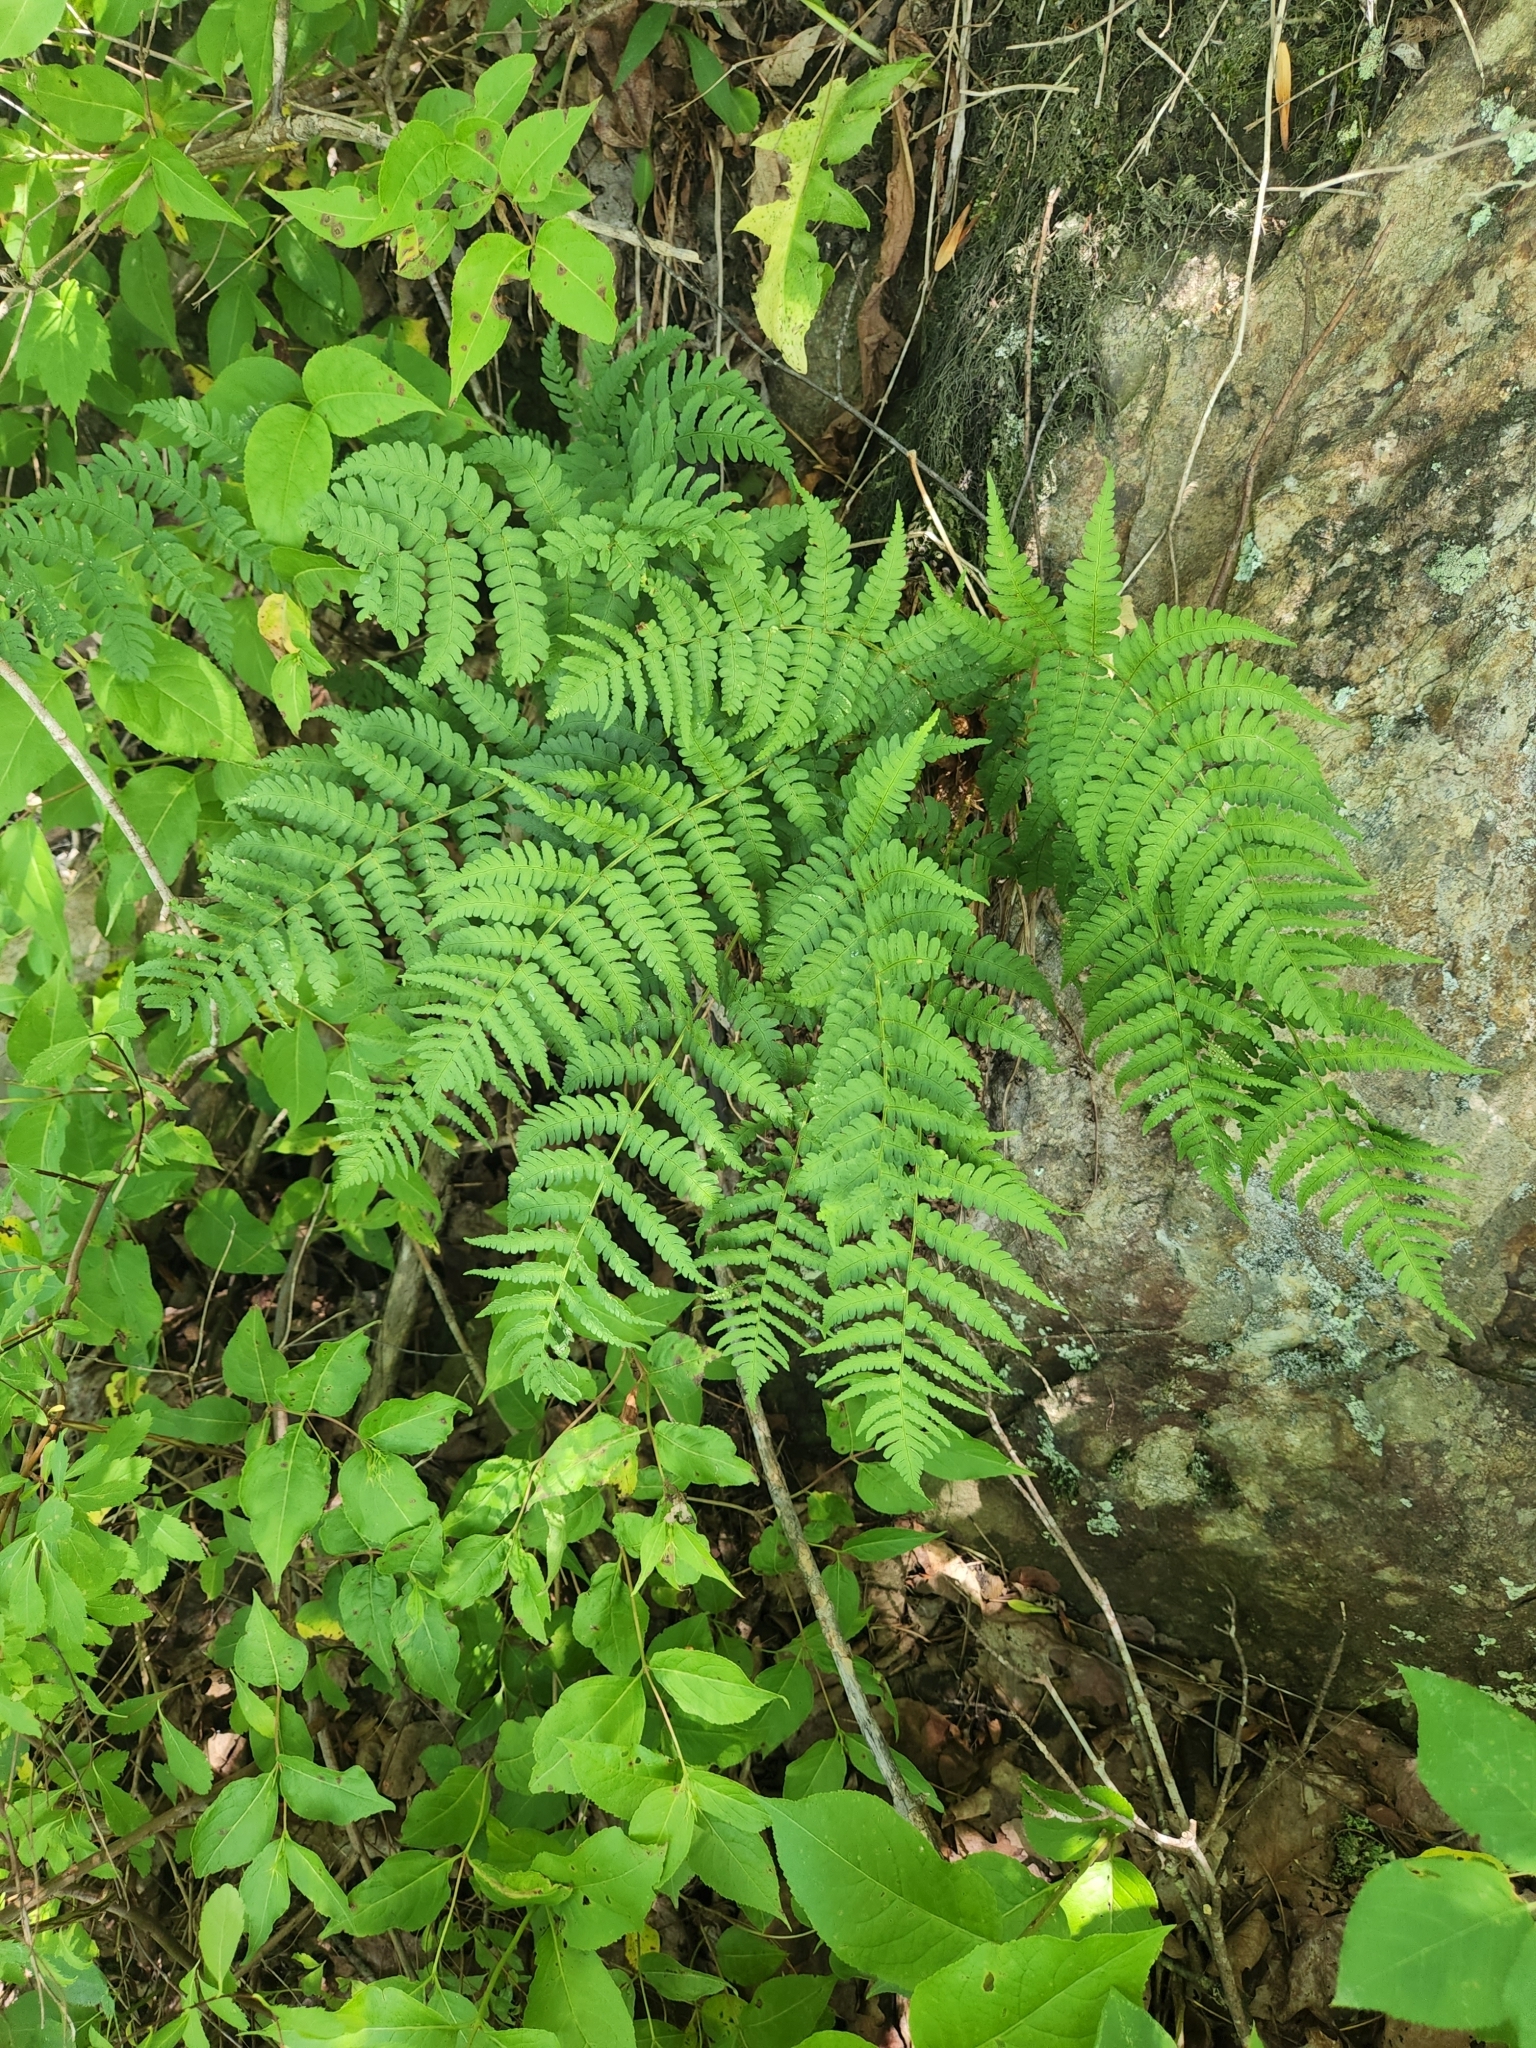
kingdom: Plantae
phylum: Tracheophyta
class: Polypodiopsida
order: Polypodiales
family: Dryopteridaceae
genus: Dryopteris
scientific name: Dryopteris marginalis
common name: Marginal wood fern
